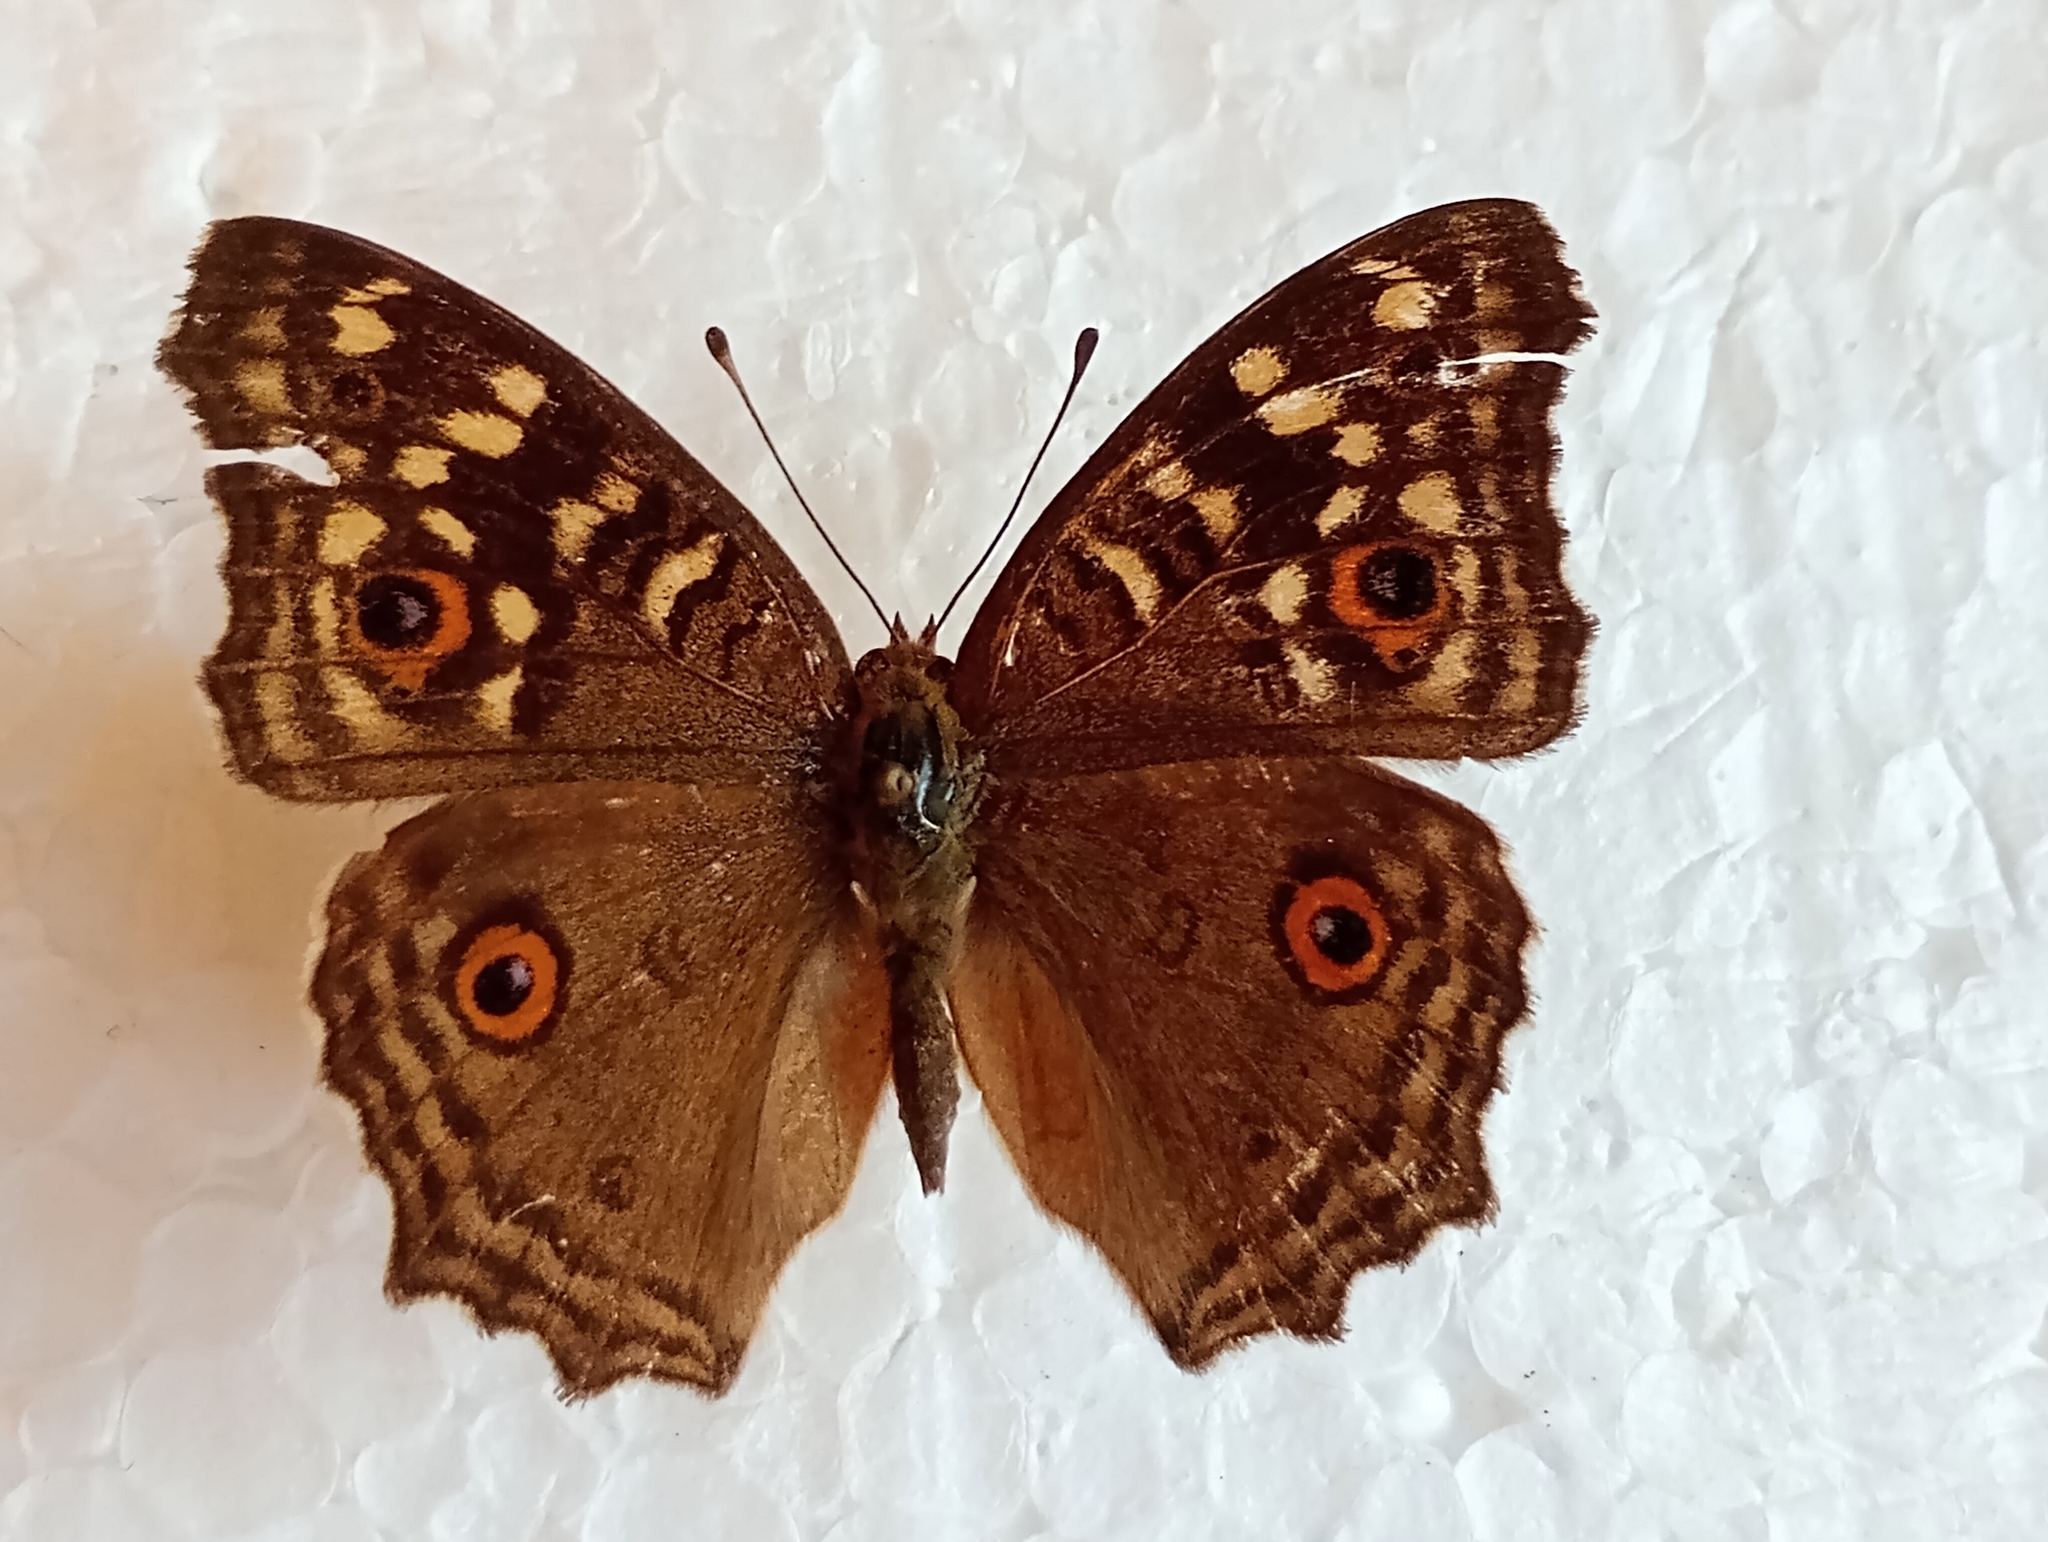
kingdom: Animalia
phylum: Arthropoda
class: Insecta
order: Lepidoptera
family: Nymphalidae
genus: Junonia
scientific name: Junonia lemonias
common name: Lemon pansy
